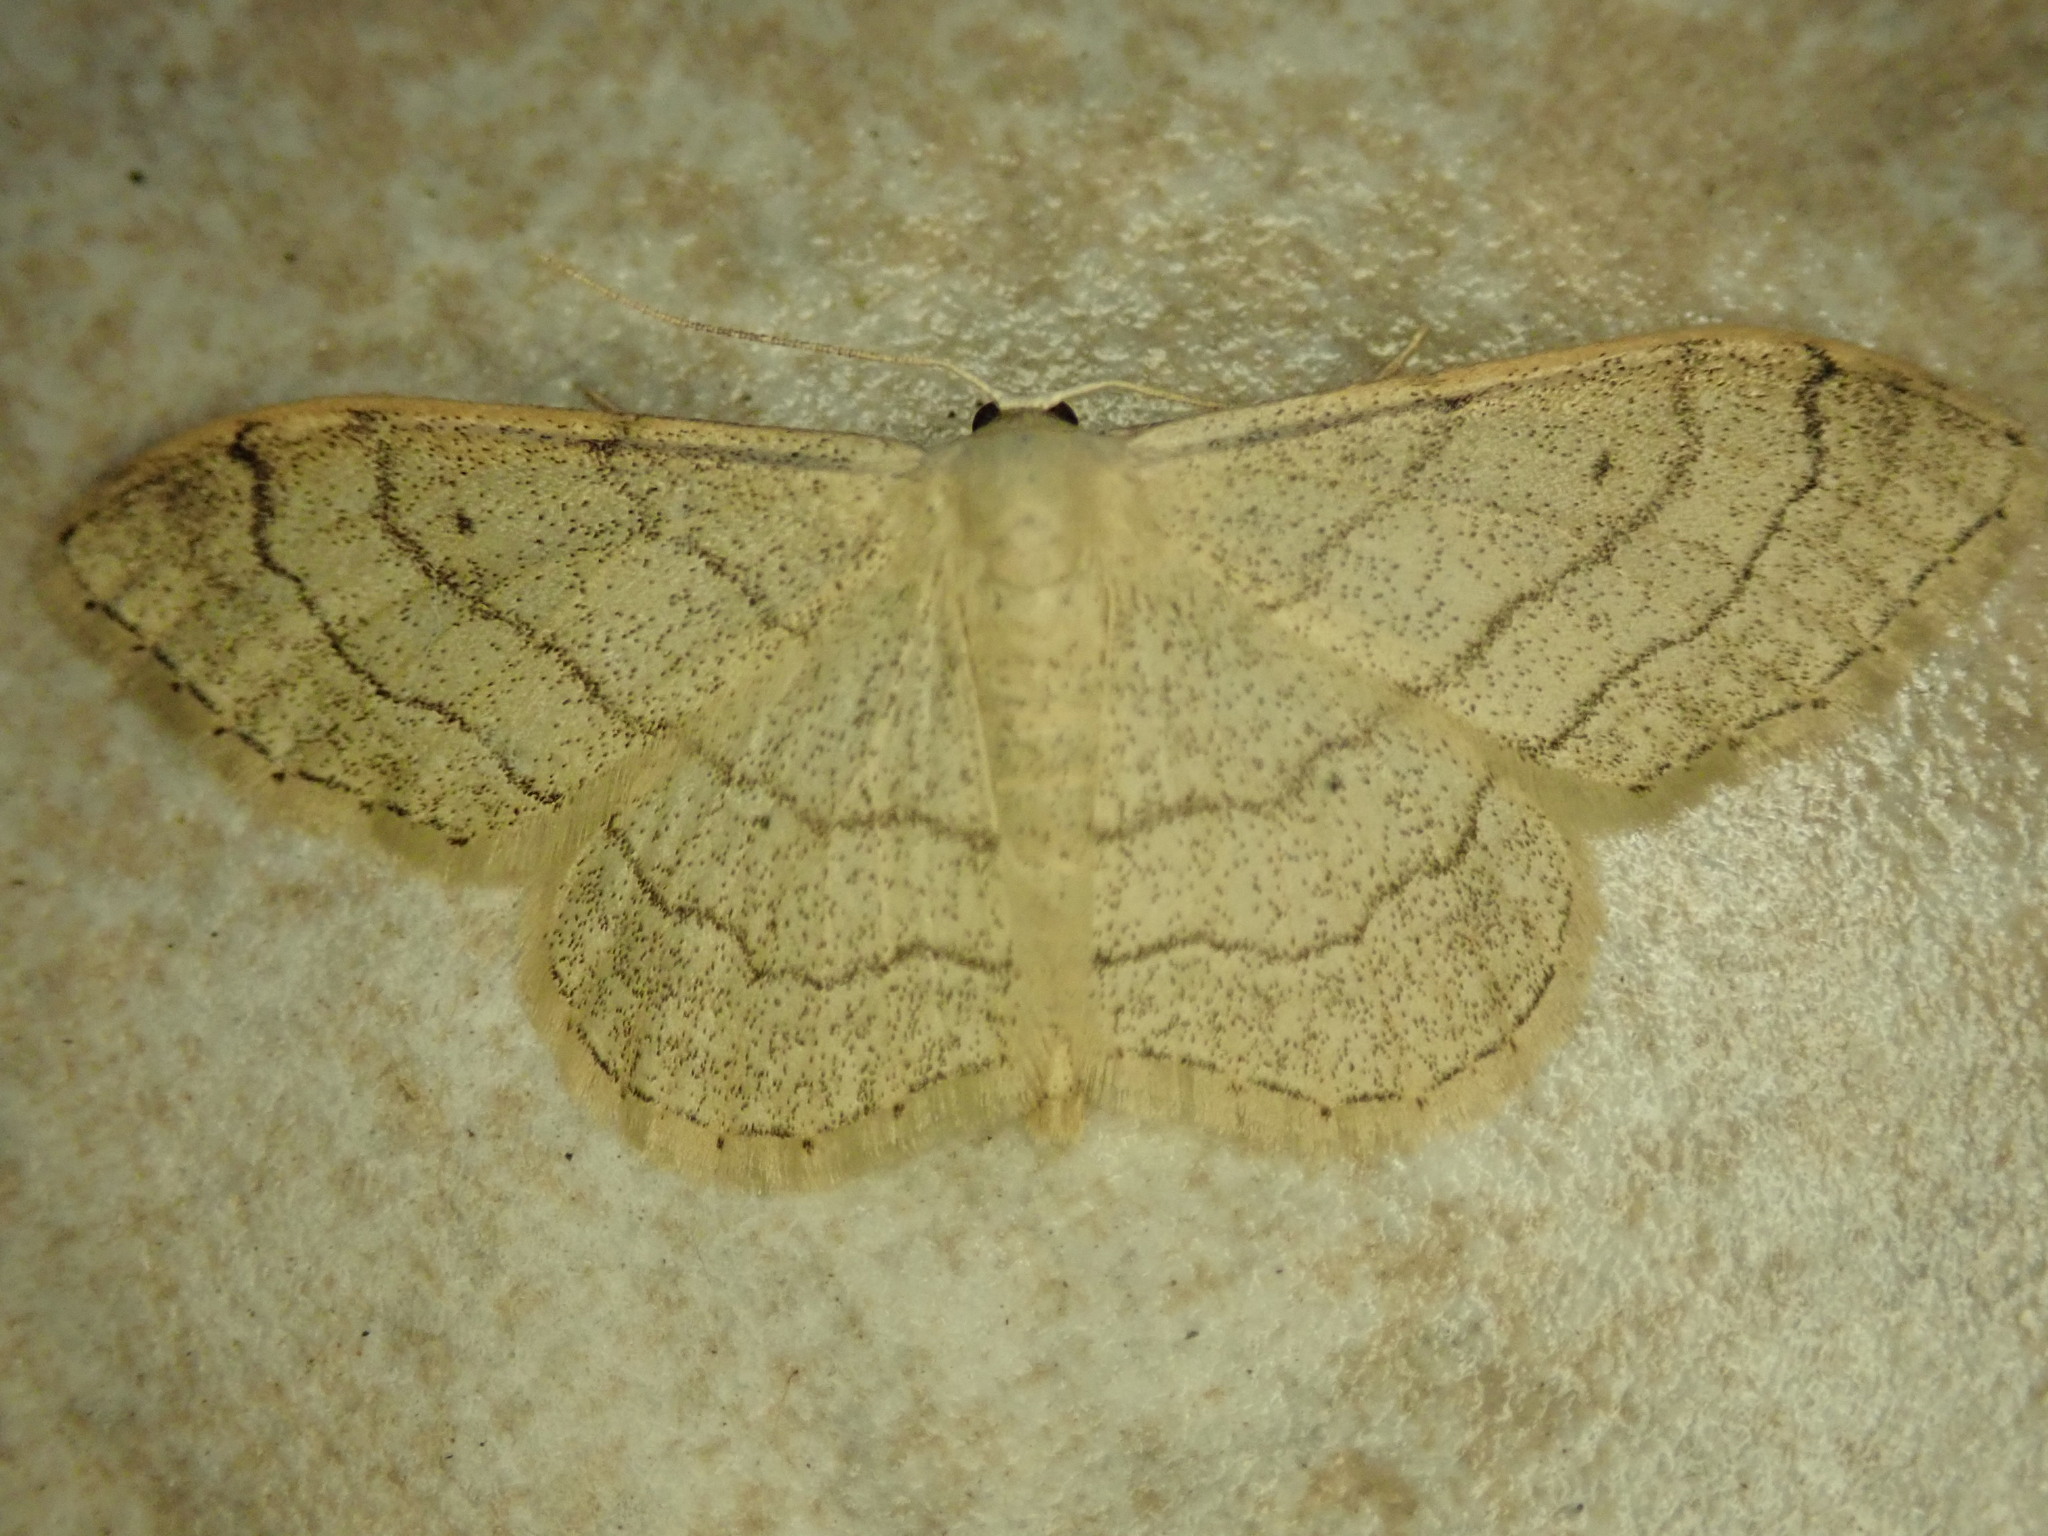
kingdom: Animalia
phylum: Arthropoda
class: Insecta
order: Lepidoptera
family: Geometridae
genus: Idaea
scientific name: Idaea aversata
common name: Riband wave
